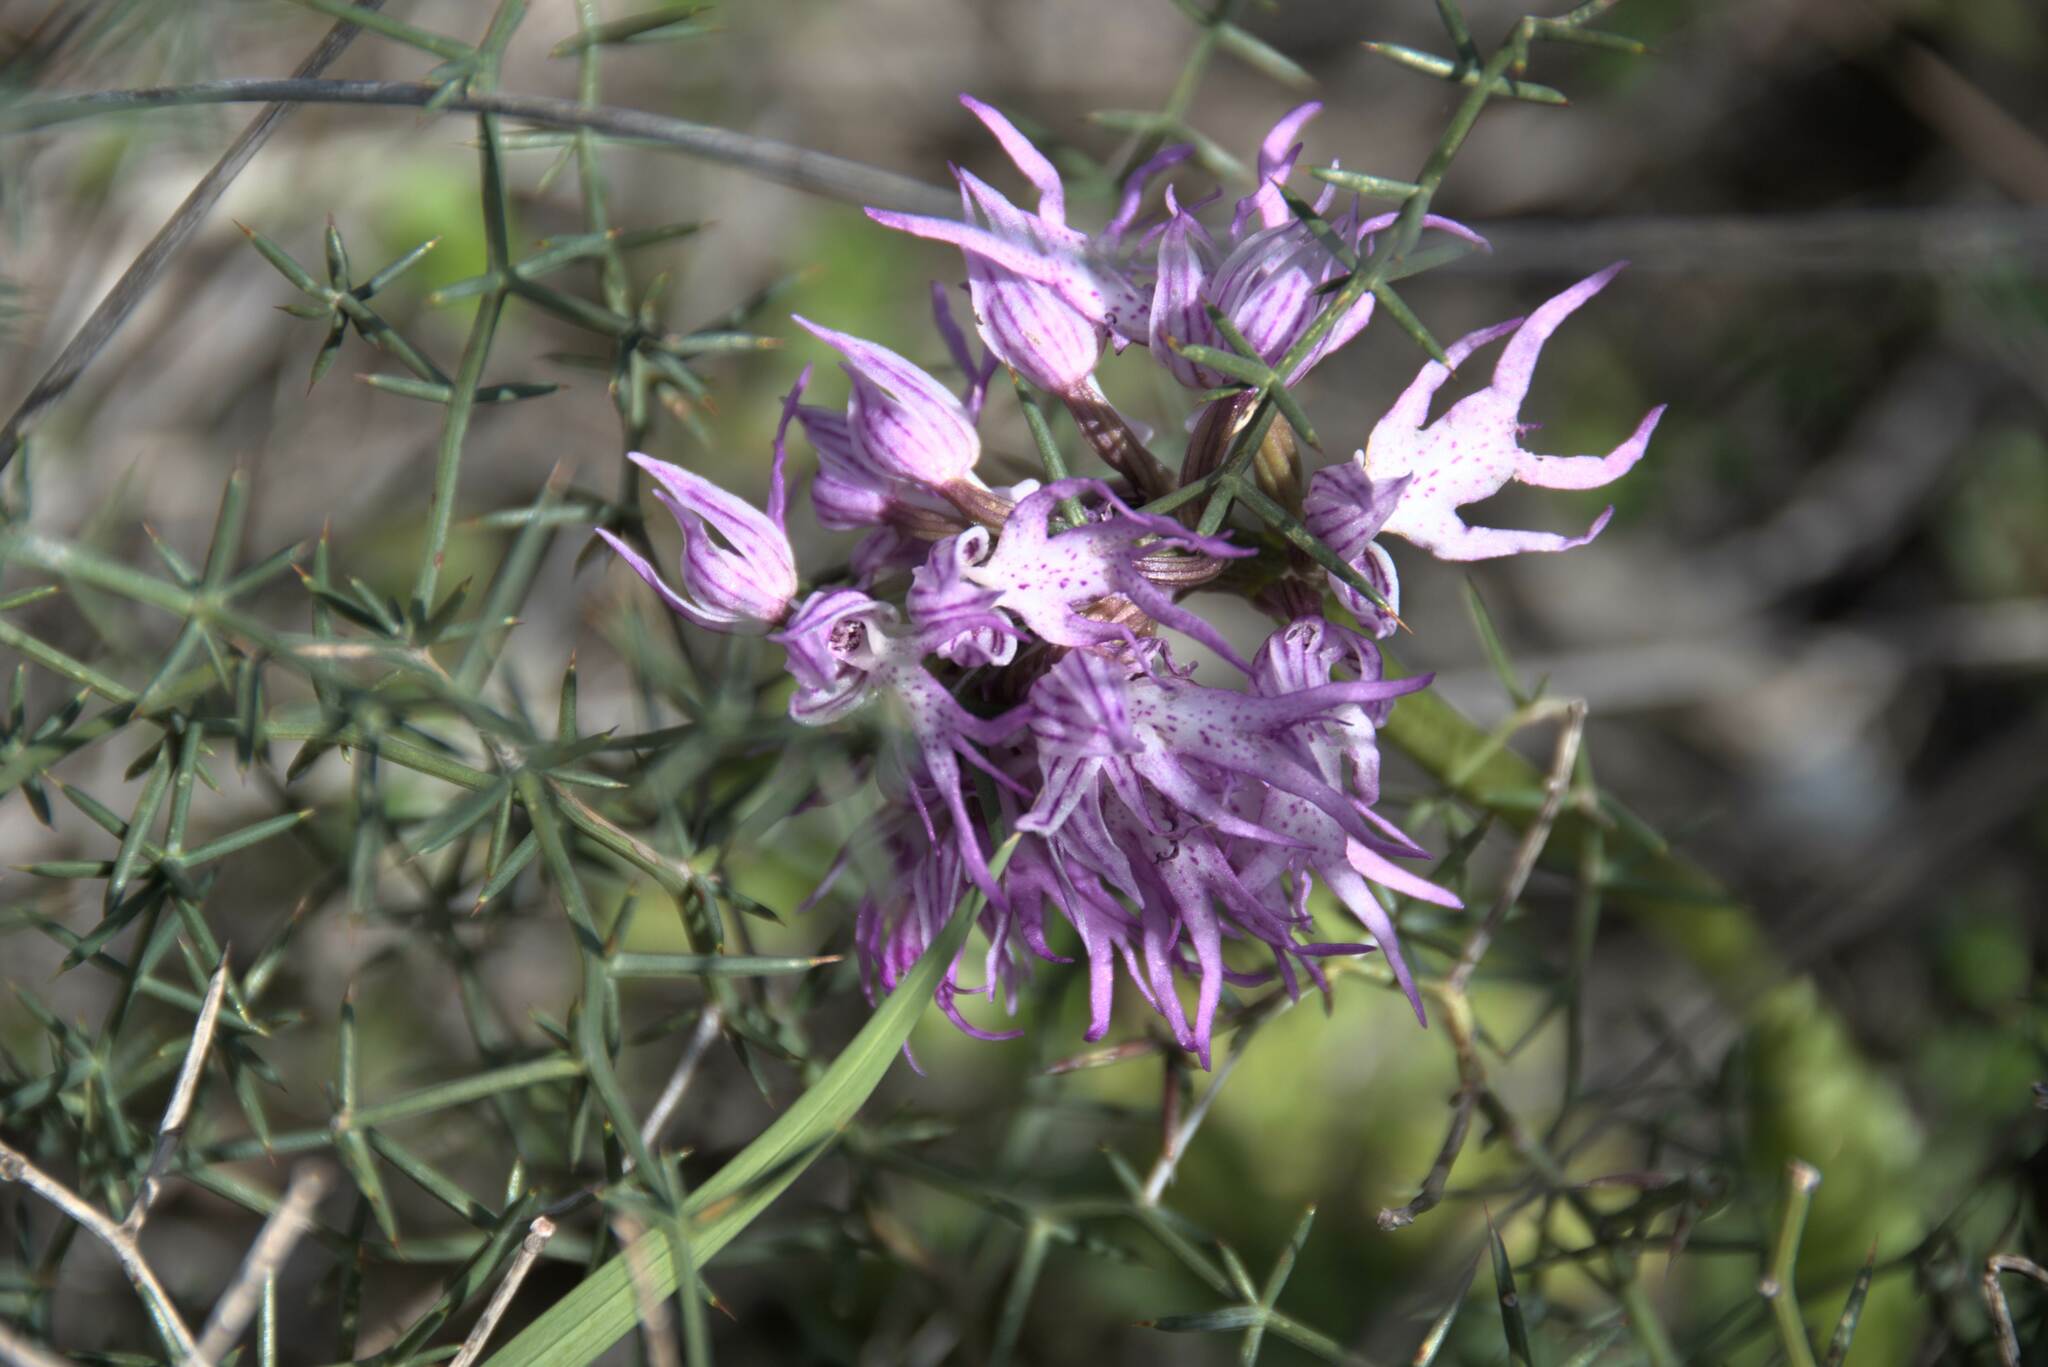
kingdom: Plantae
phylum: Tracheophyta
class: Liliopsida
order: Asparagales
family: Orchidaceae
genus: Orchis
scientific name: Orchis italica
